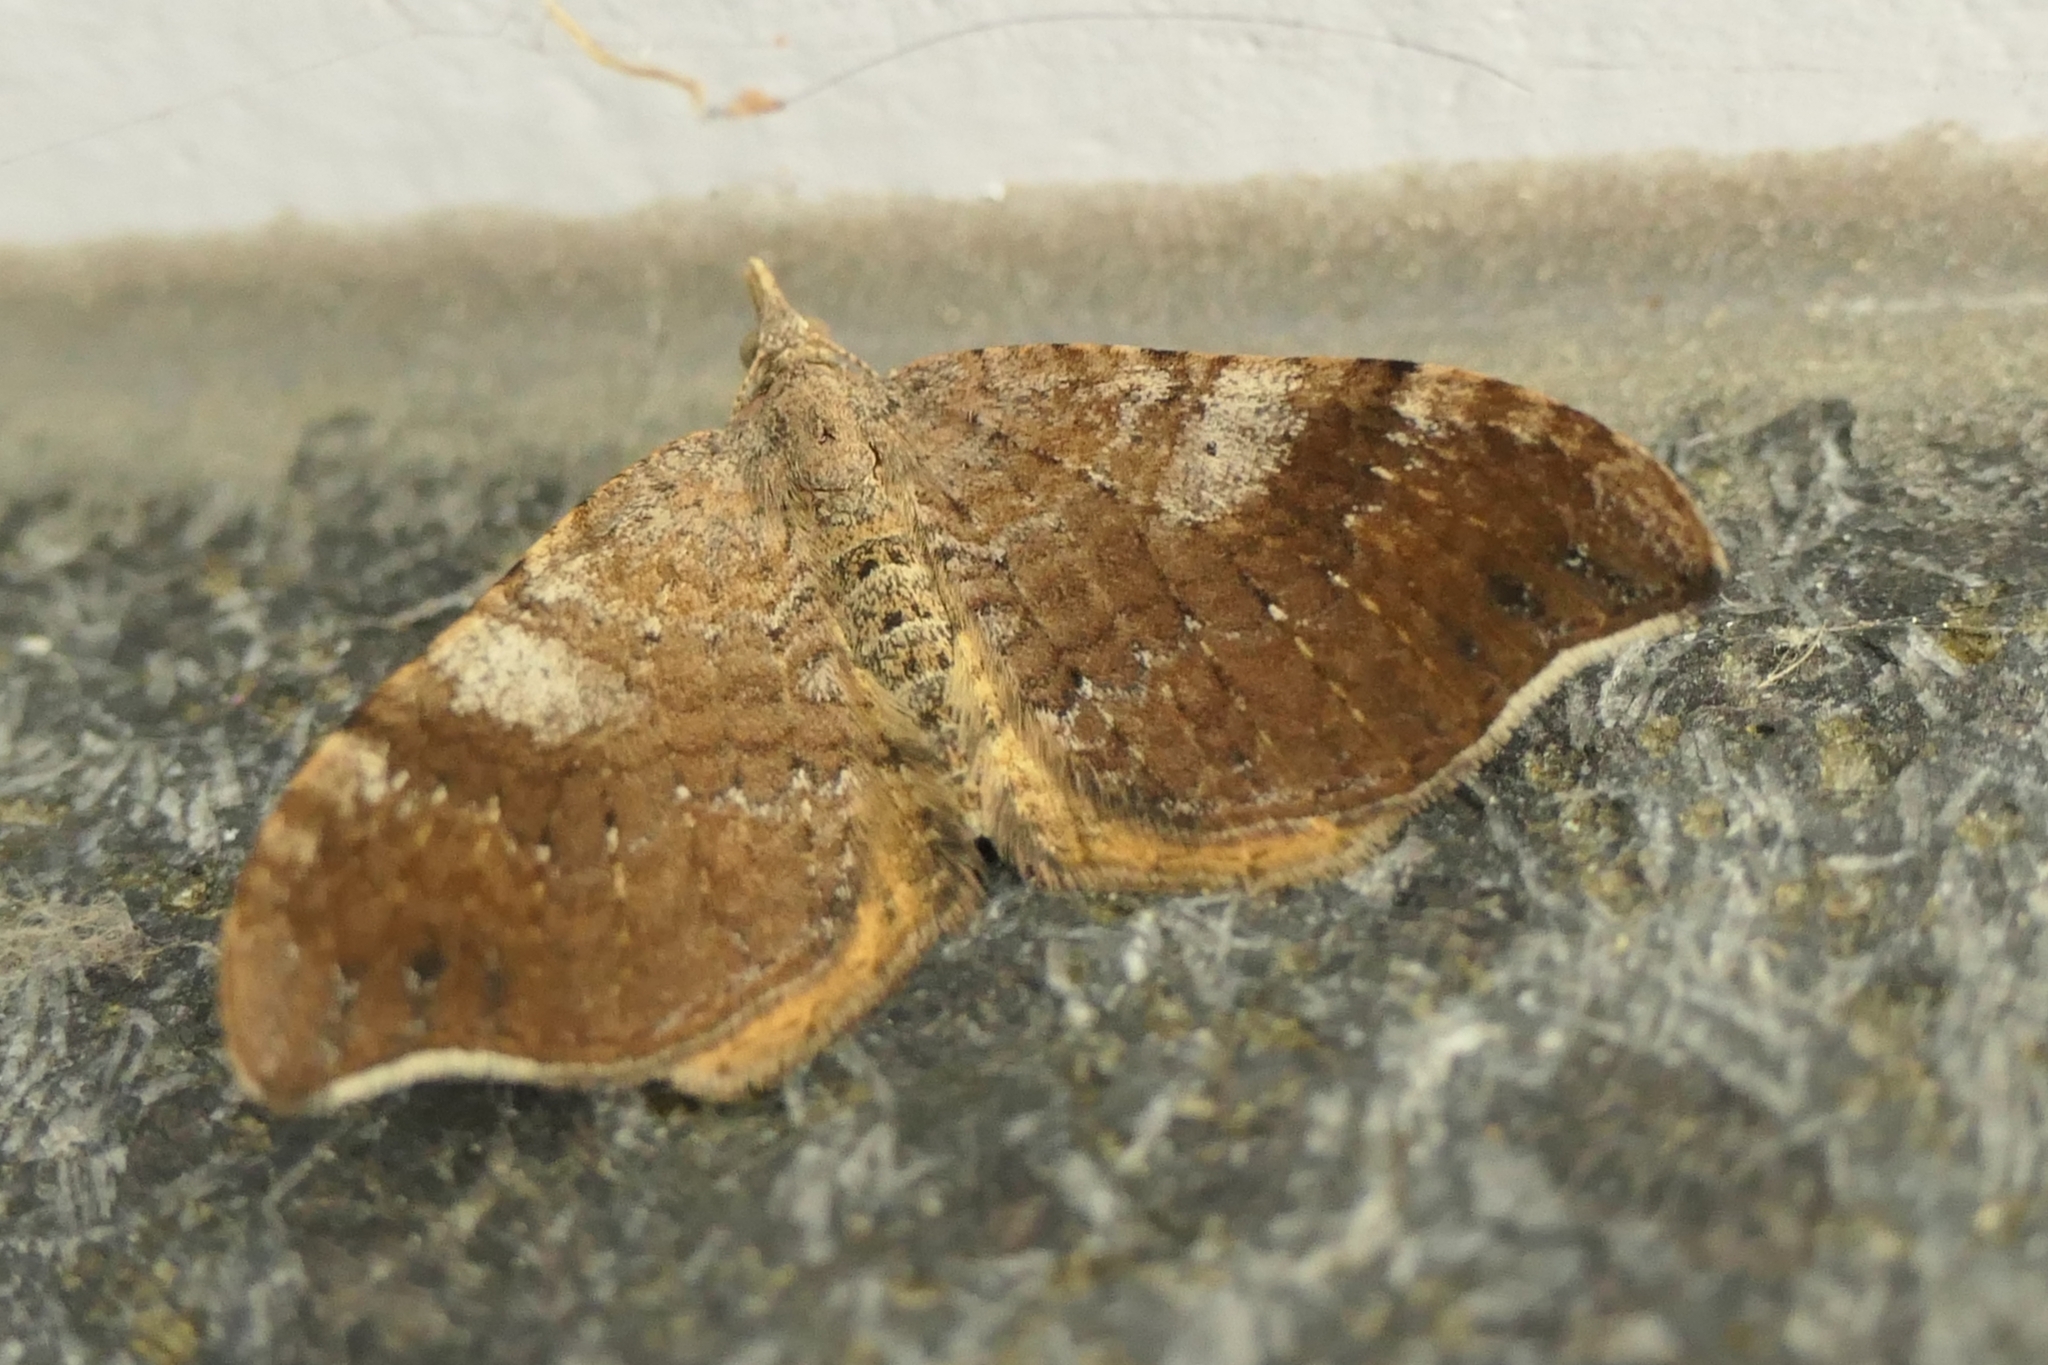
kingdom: Animalia
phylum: Arthropoda
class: Insecta
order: Lepidoptera
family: Geometridae
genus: Homodotis
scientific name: Homodotis megaspilata
